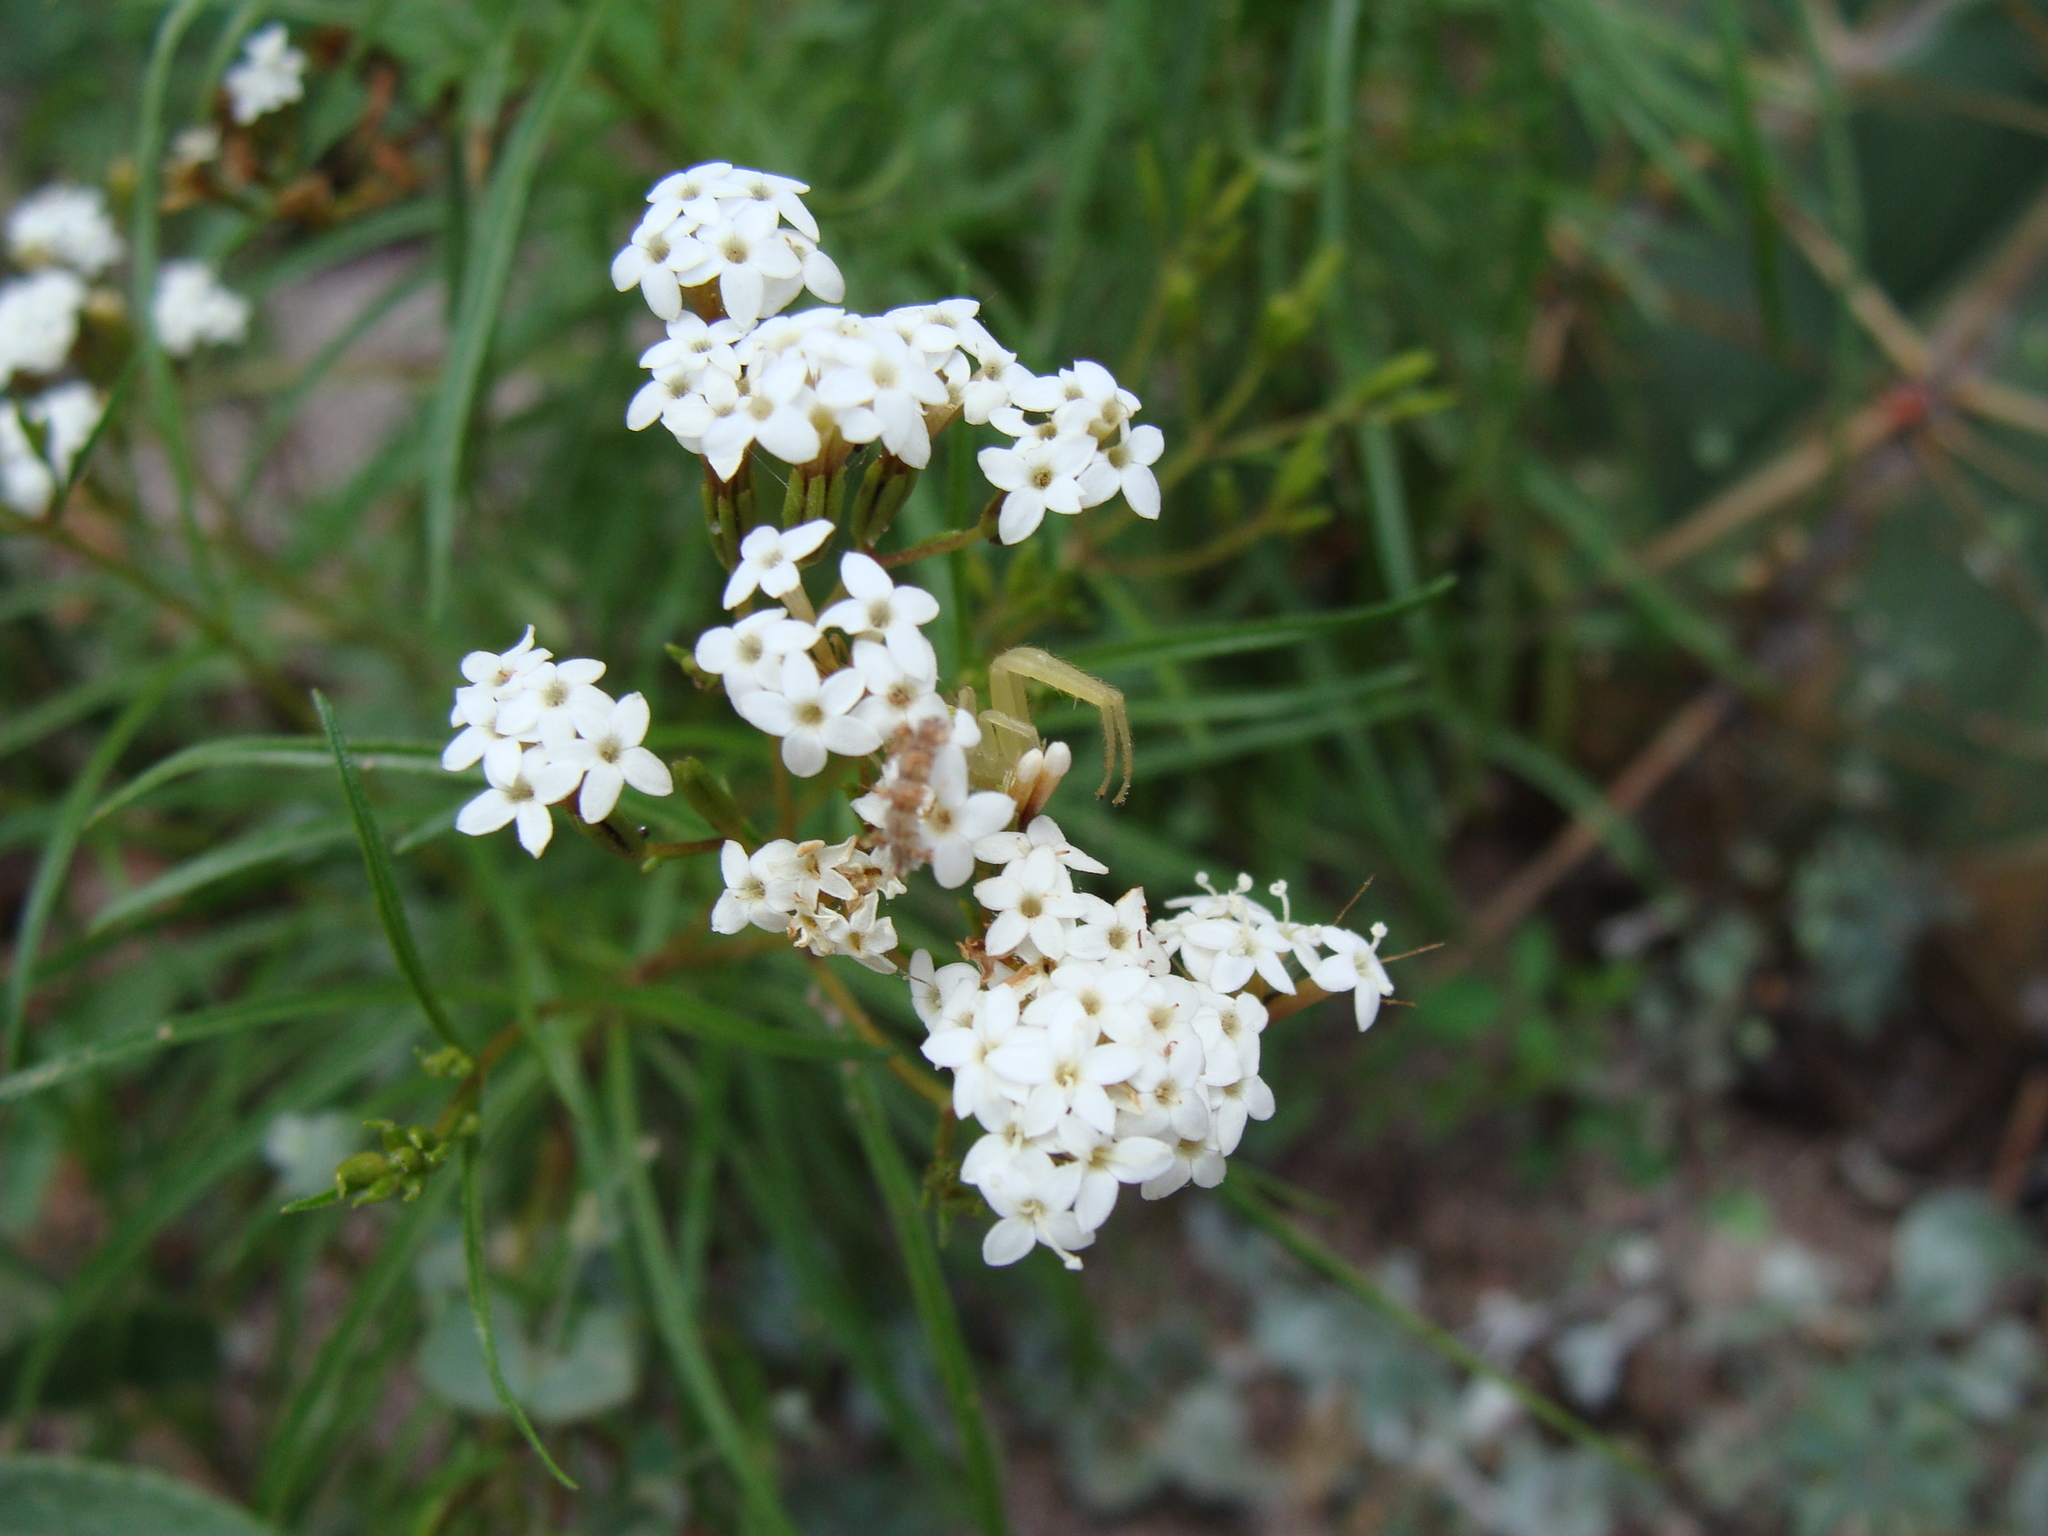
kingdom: Plantae
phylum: Tracheophyta
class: Magnoliopsida
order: Asterales
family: Asteraceae
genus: Stevia
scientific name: Stevia salicifolia
